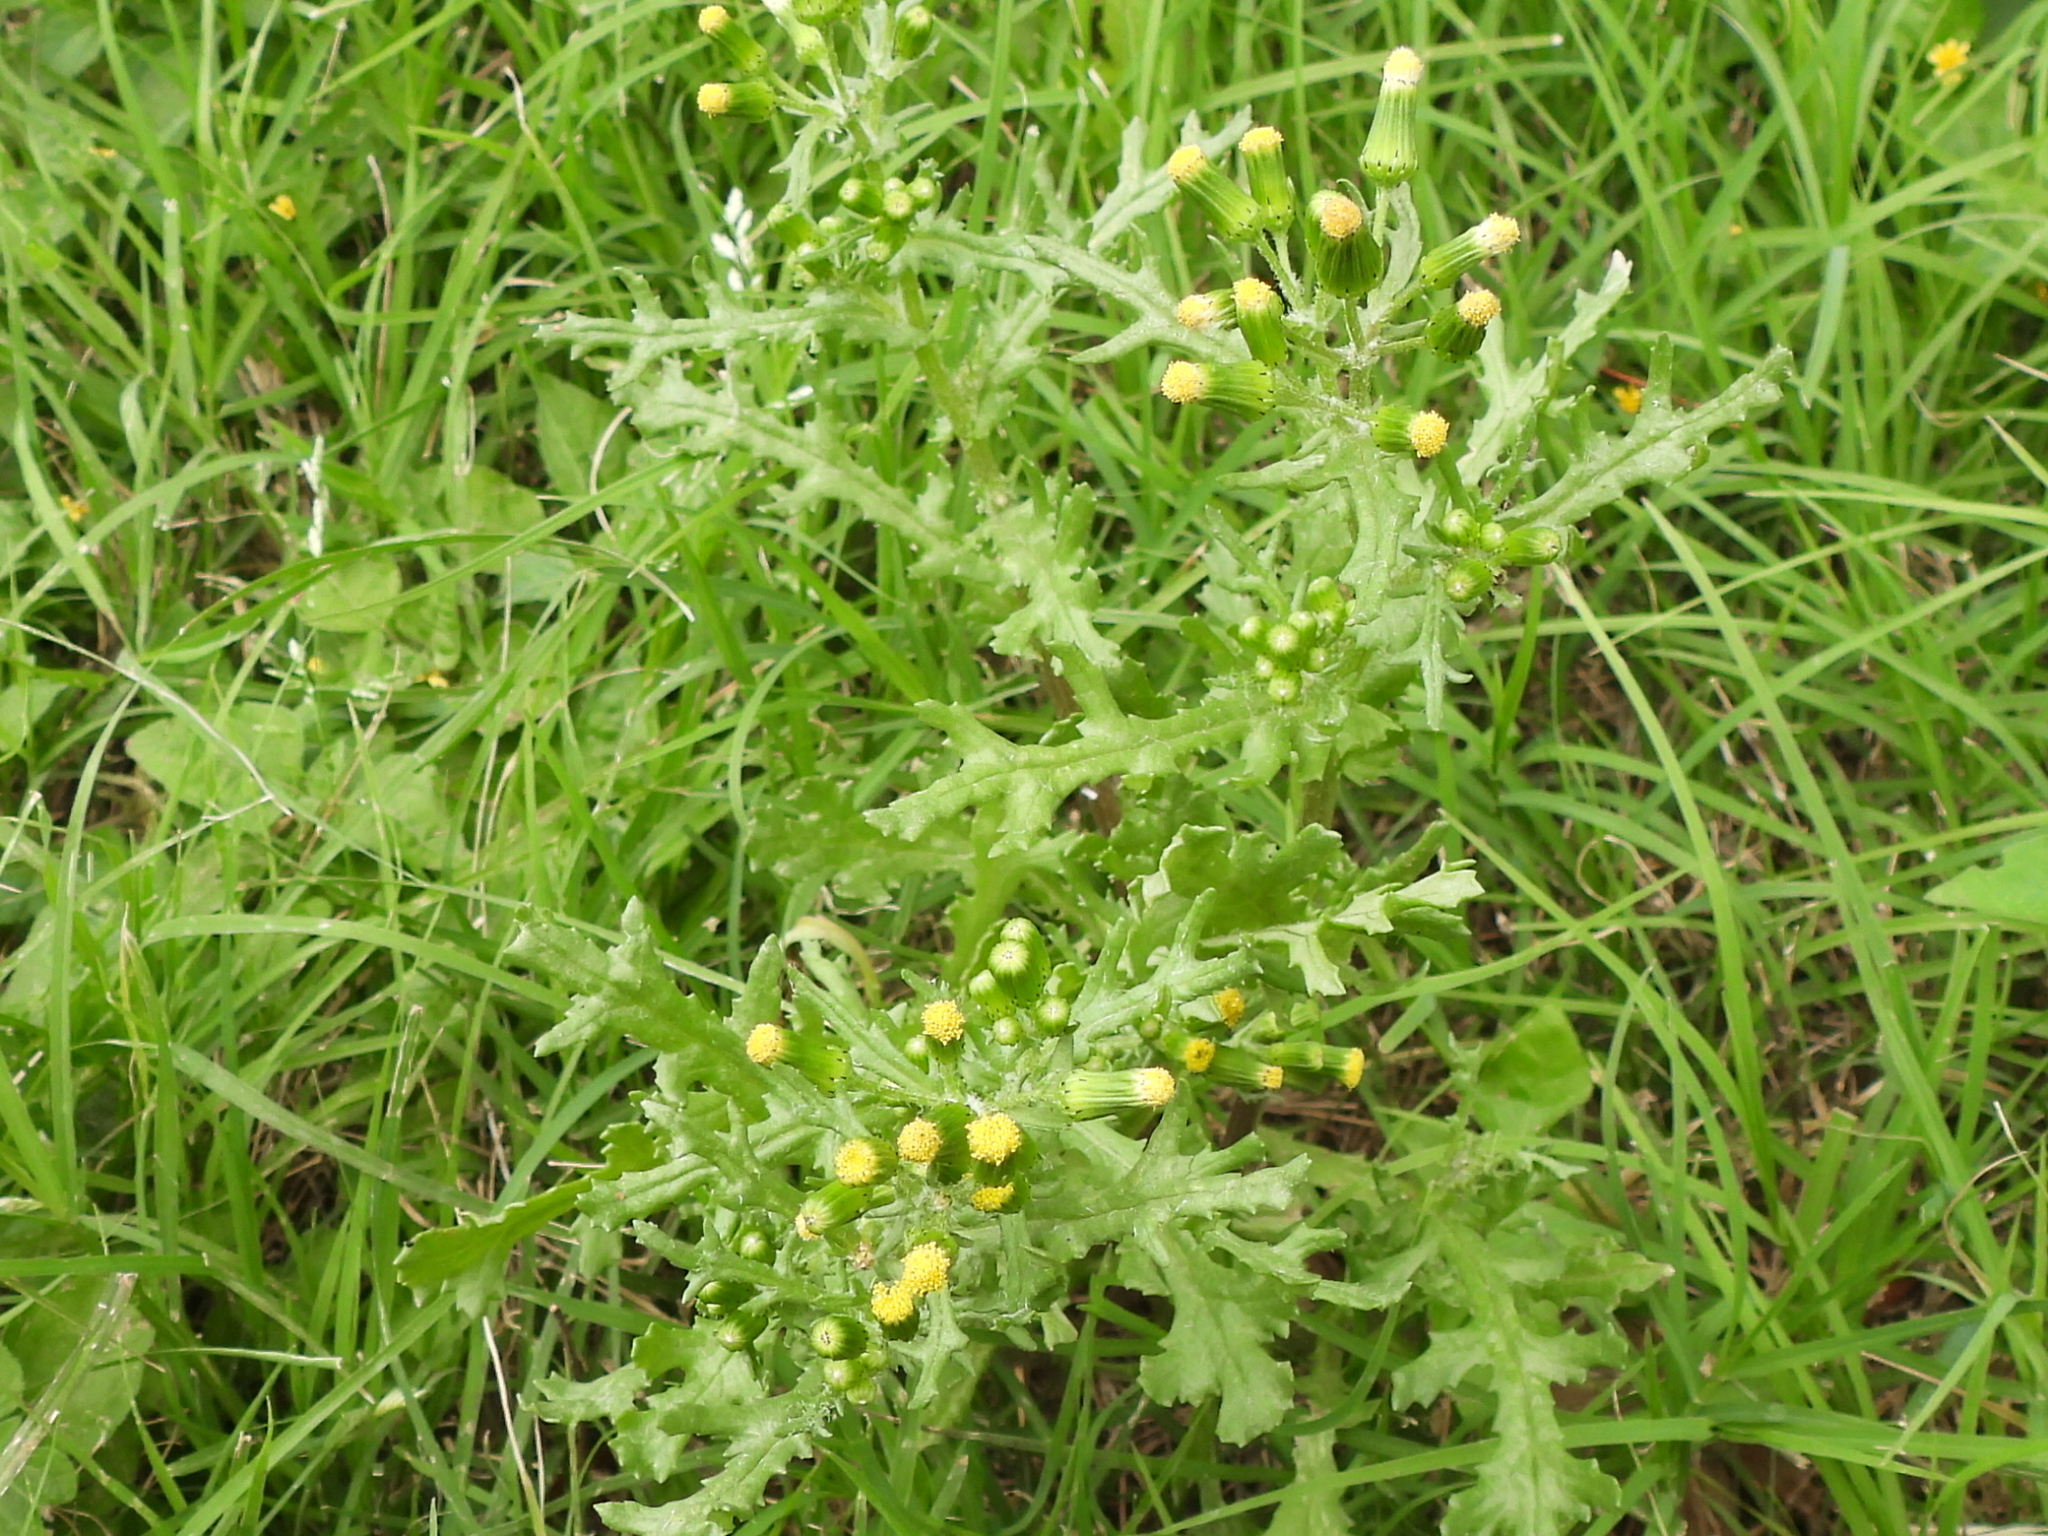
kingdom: Plantae
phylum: Tracheophyta
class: Magnoliopsida
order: Asterales
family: Asteraceae
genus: Senecio
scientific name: Senecio vulgaris
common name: Old-man-in-the-spring
